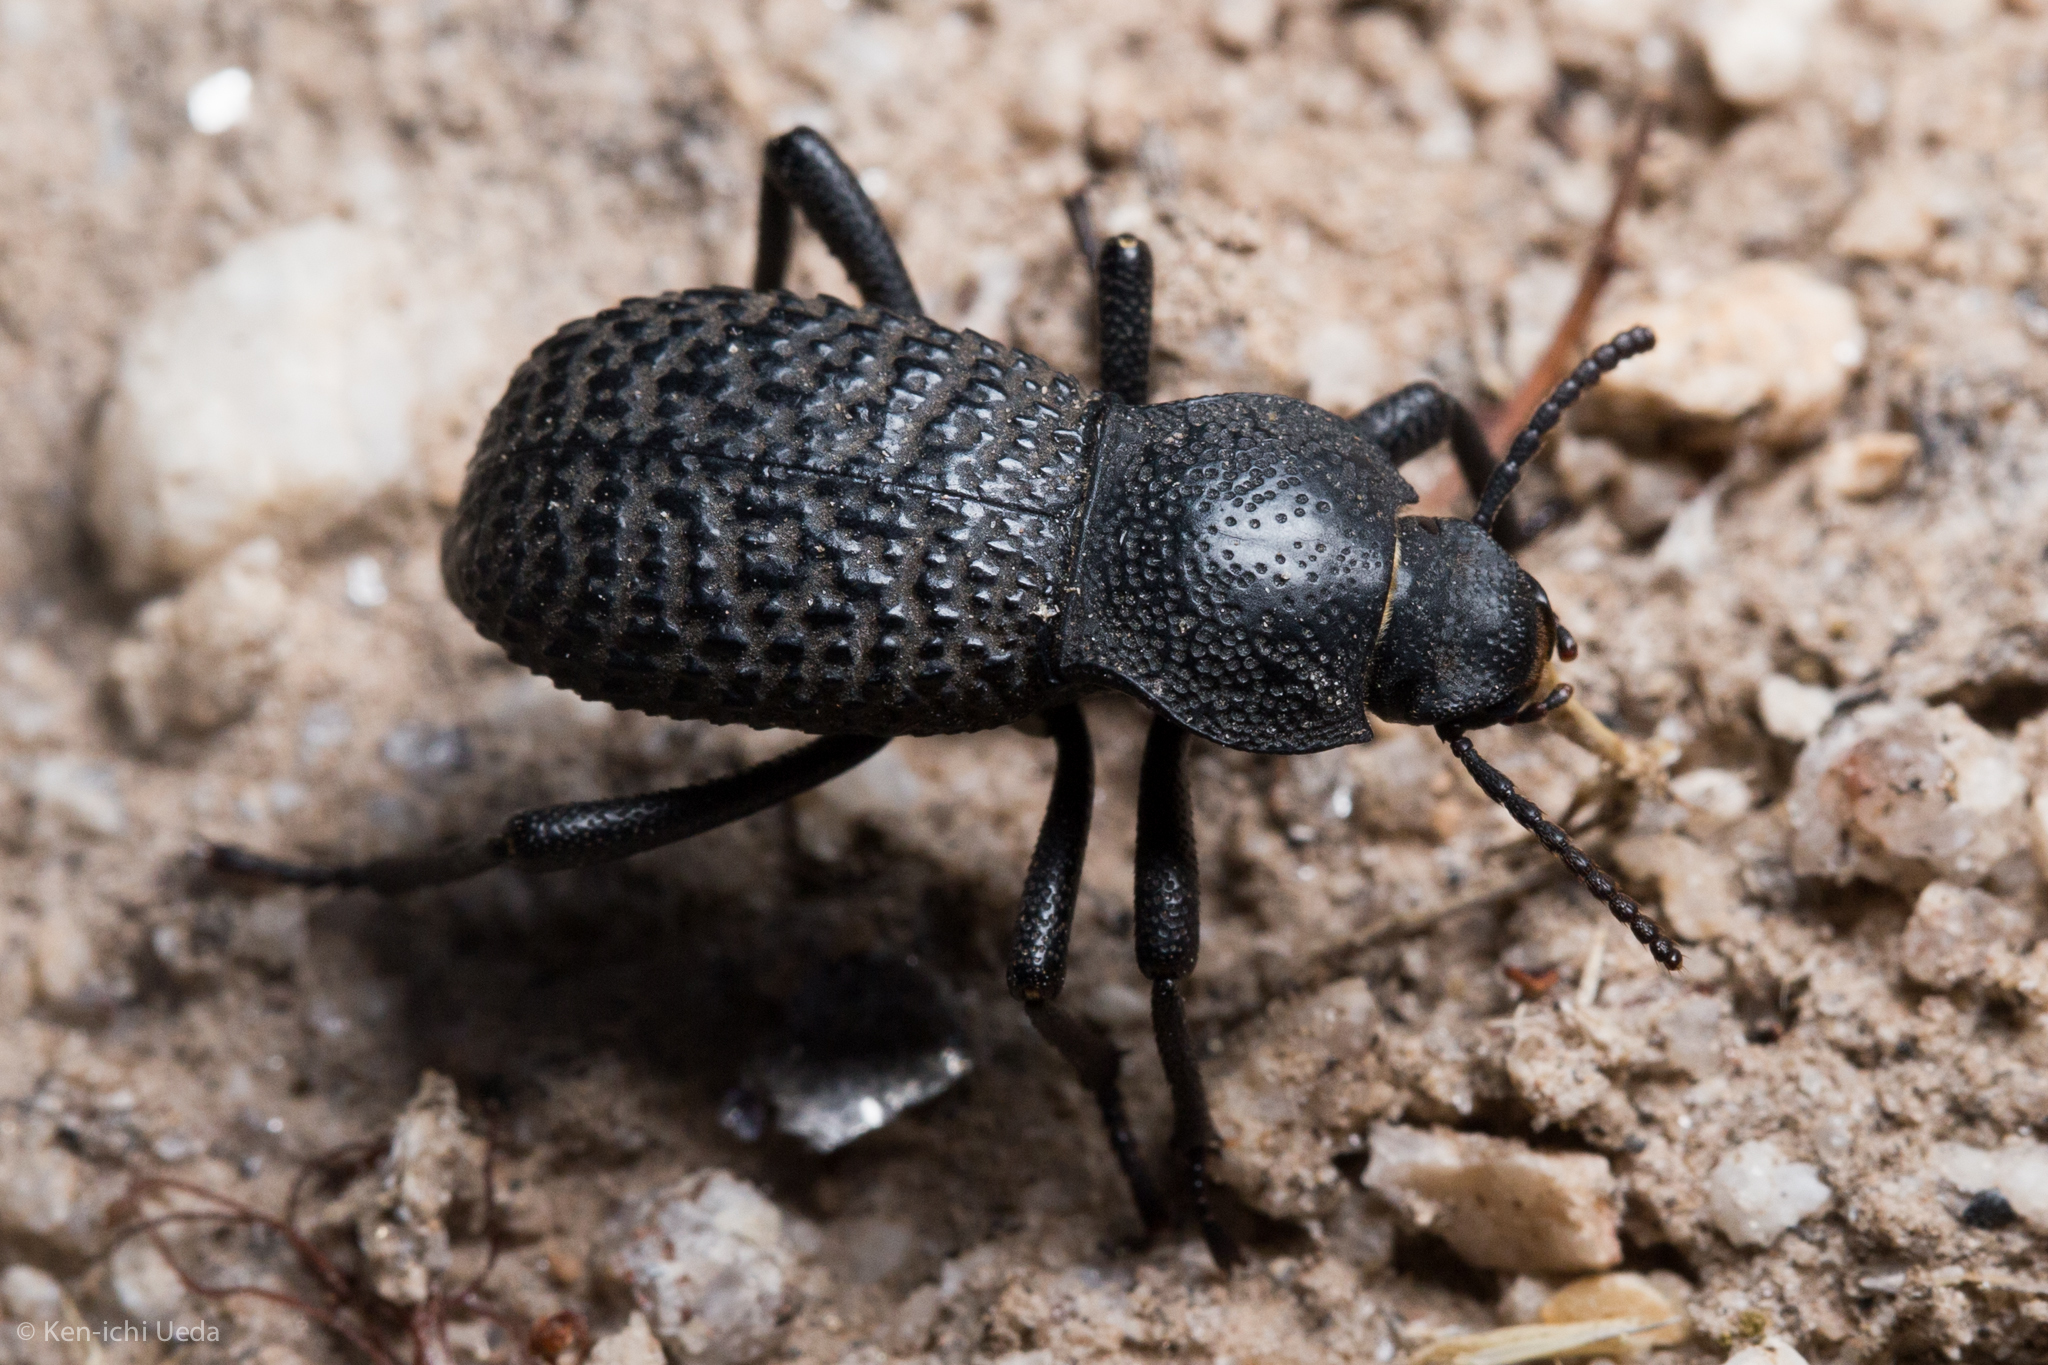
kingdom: Animalia
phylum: Arthropoda
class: Insecta
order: Coleoptera
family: Tenebrionidae
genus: Cryptoglossa
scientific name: Cryptoglossa variolosa
